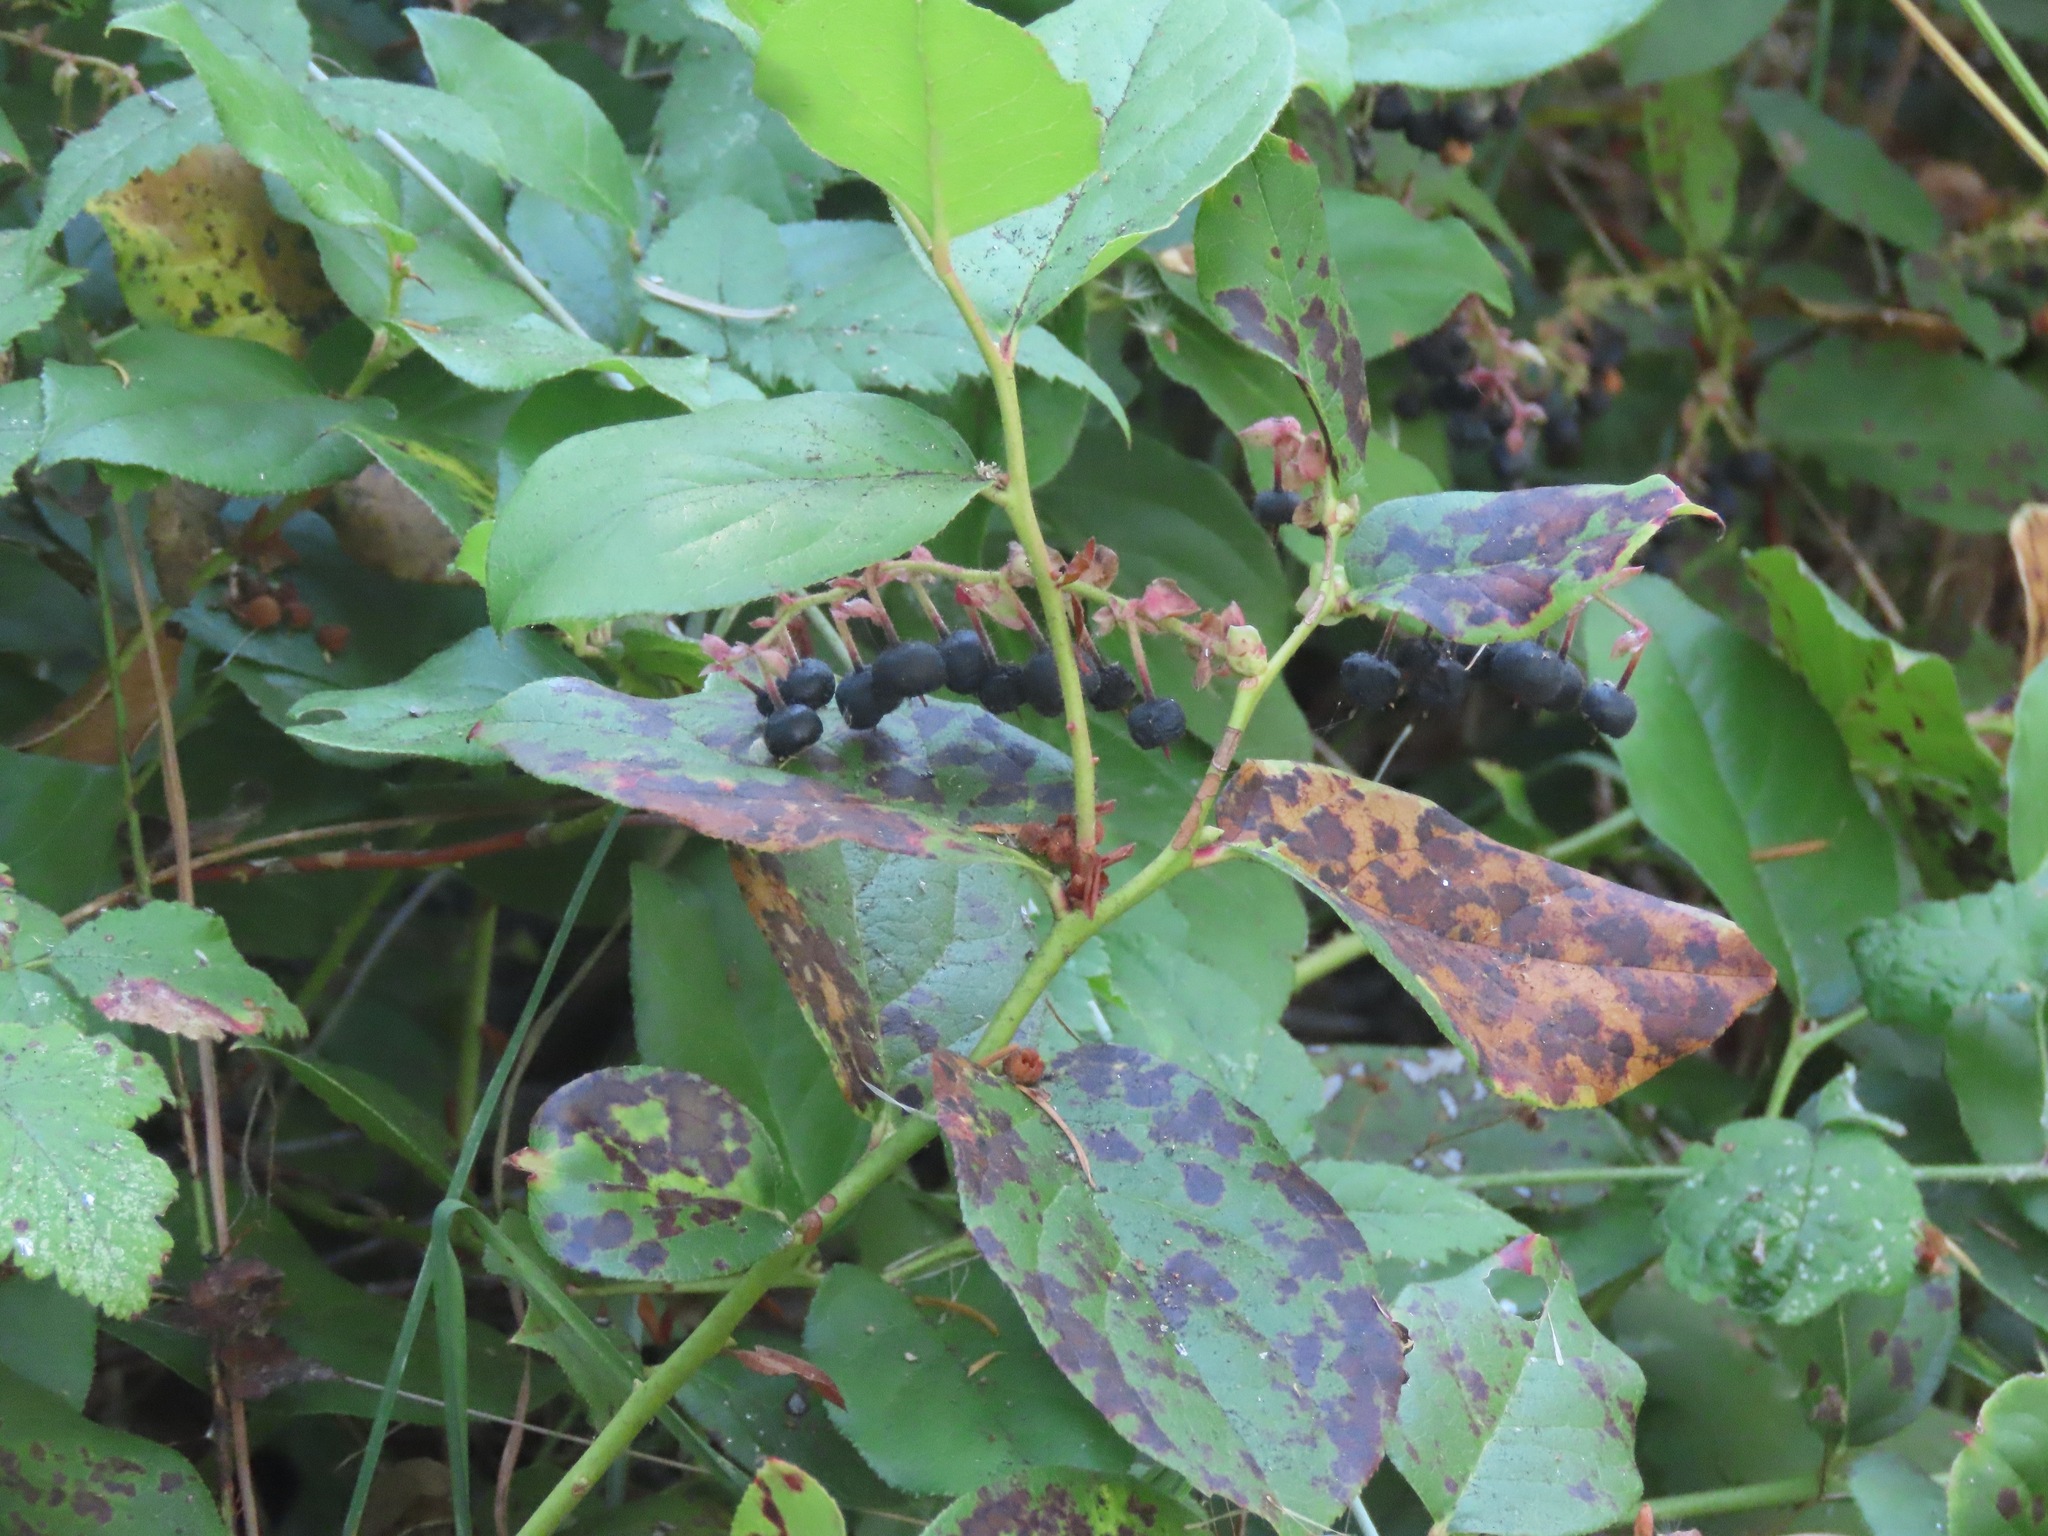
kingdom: Plantae
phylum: Tracheophyta
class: Magnoliopsida
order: Ericales
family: Ericaceae
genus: Gaultheria
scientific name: Gaultheria shallon
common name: Shallon
